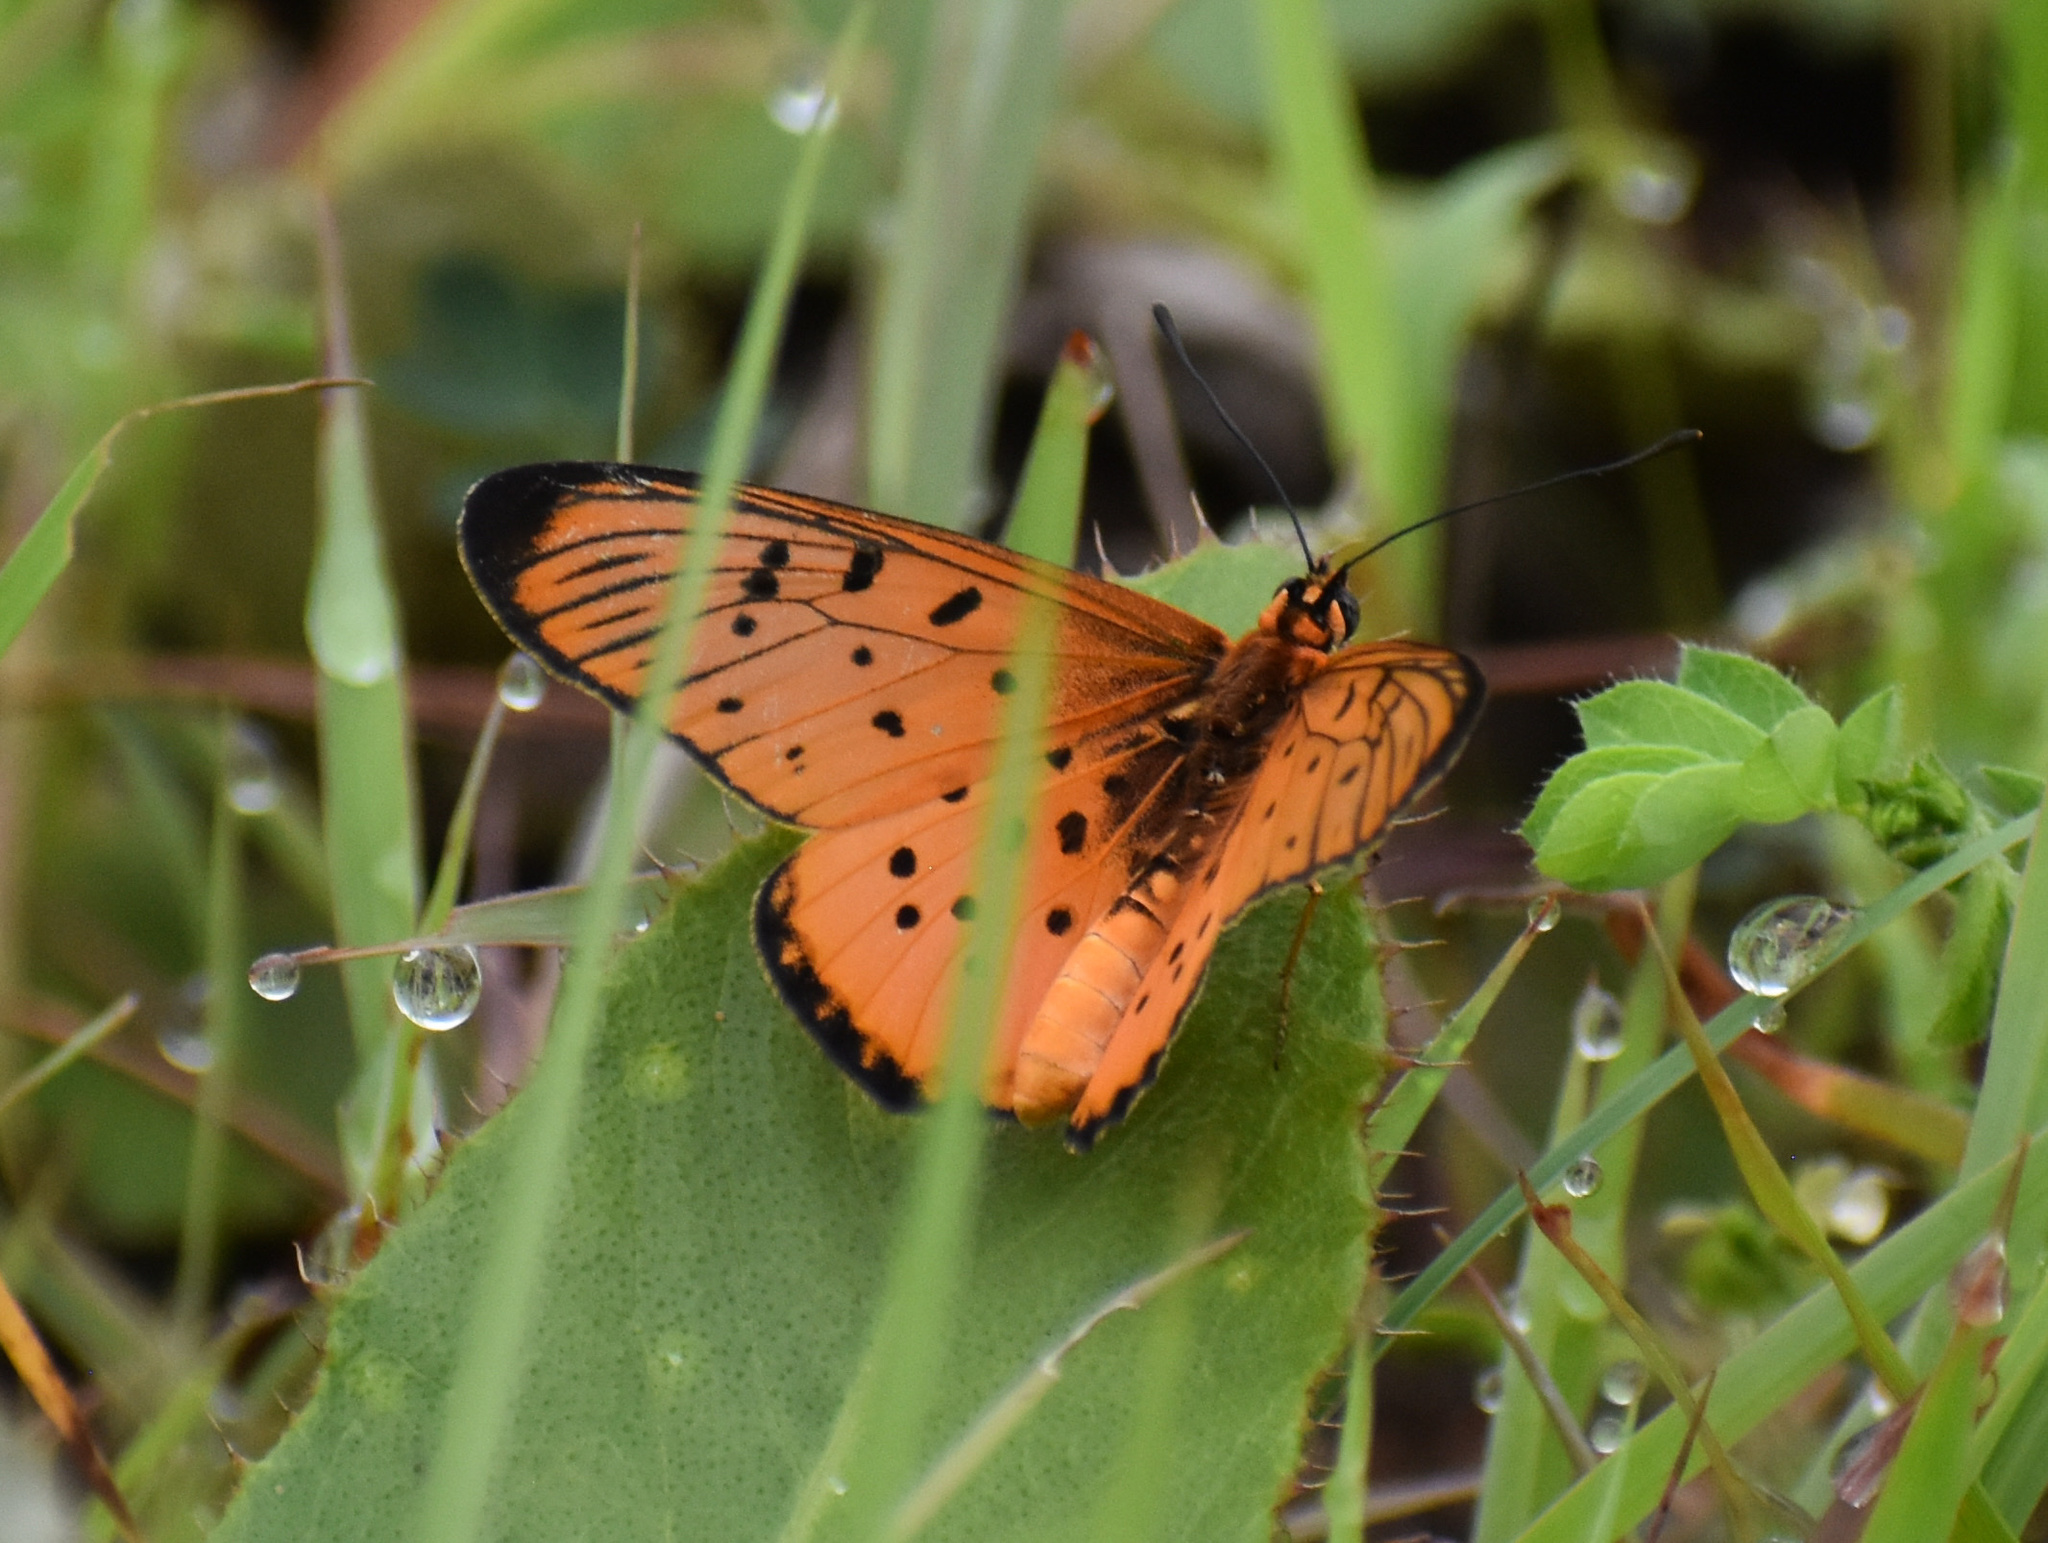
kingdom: Animalia
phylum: Arthropoda
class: Insecta
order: Lepidoptera
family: Nymphalidae
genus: Stephenia
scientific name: Stephenia
